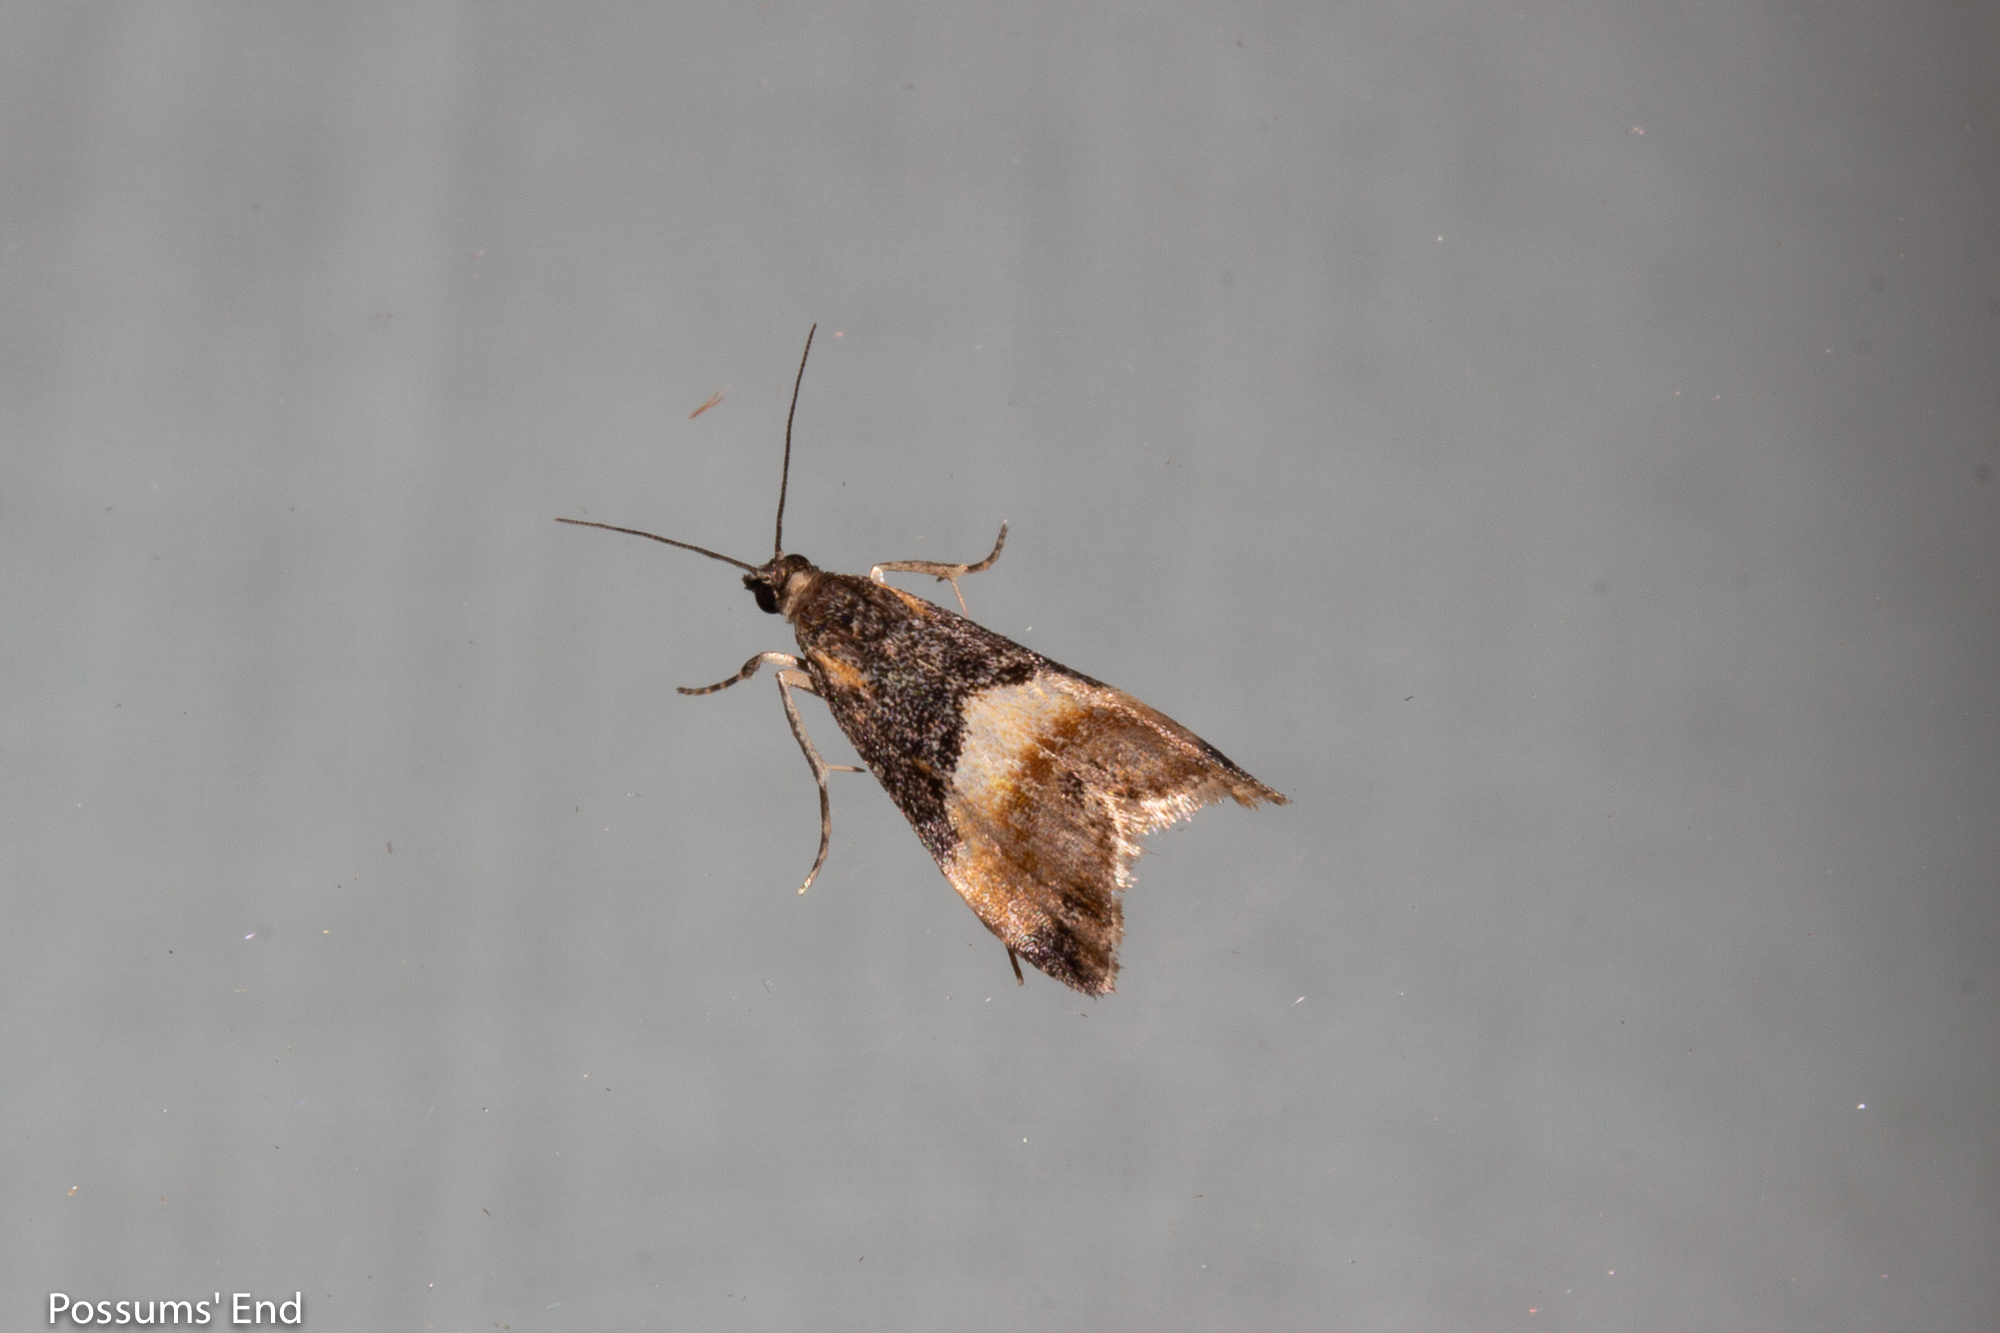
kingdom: Animalia
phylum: Arthropoda
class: Insecta
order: Lepidoptera
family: Crambidae
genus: Eudonia
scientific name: Eudonia chlamydota
